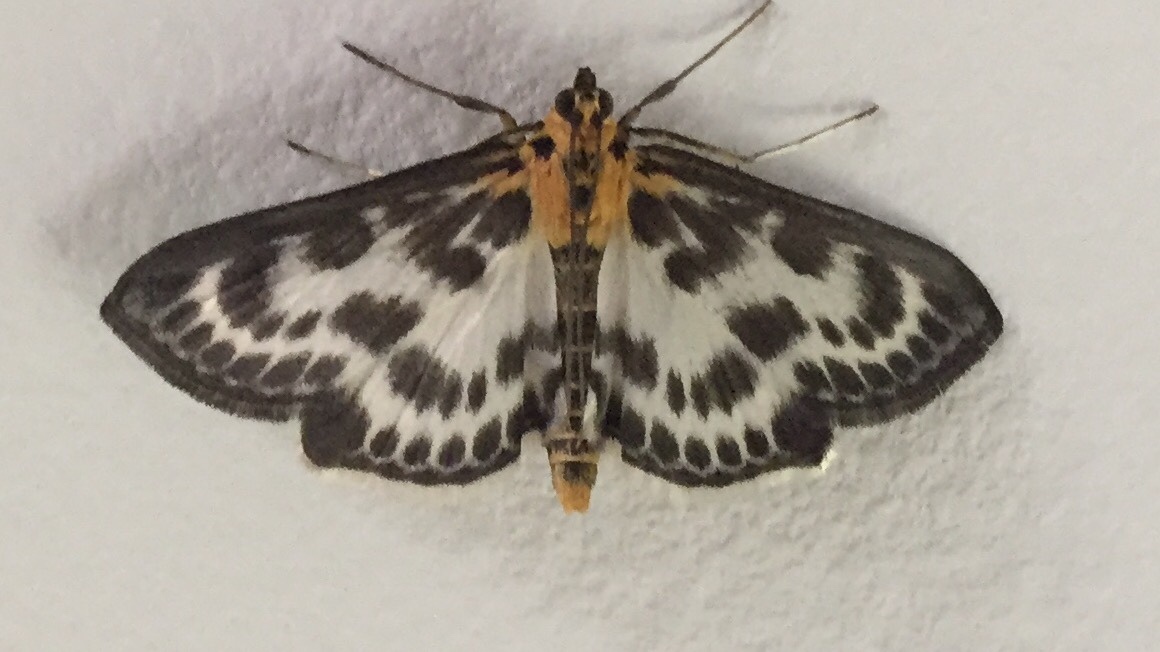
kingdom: Animalia
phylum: Arthropoda
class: Insecta
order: Lepidoptera
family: Crambidae
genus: Anania
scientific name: Anania hortulata
